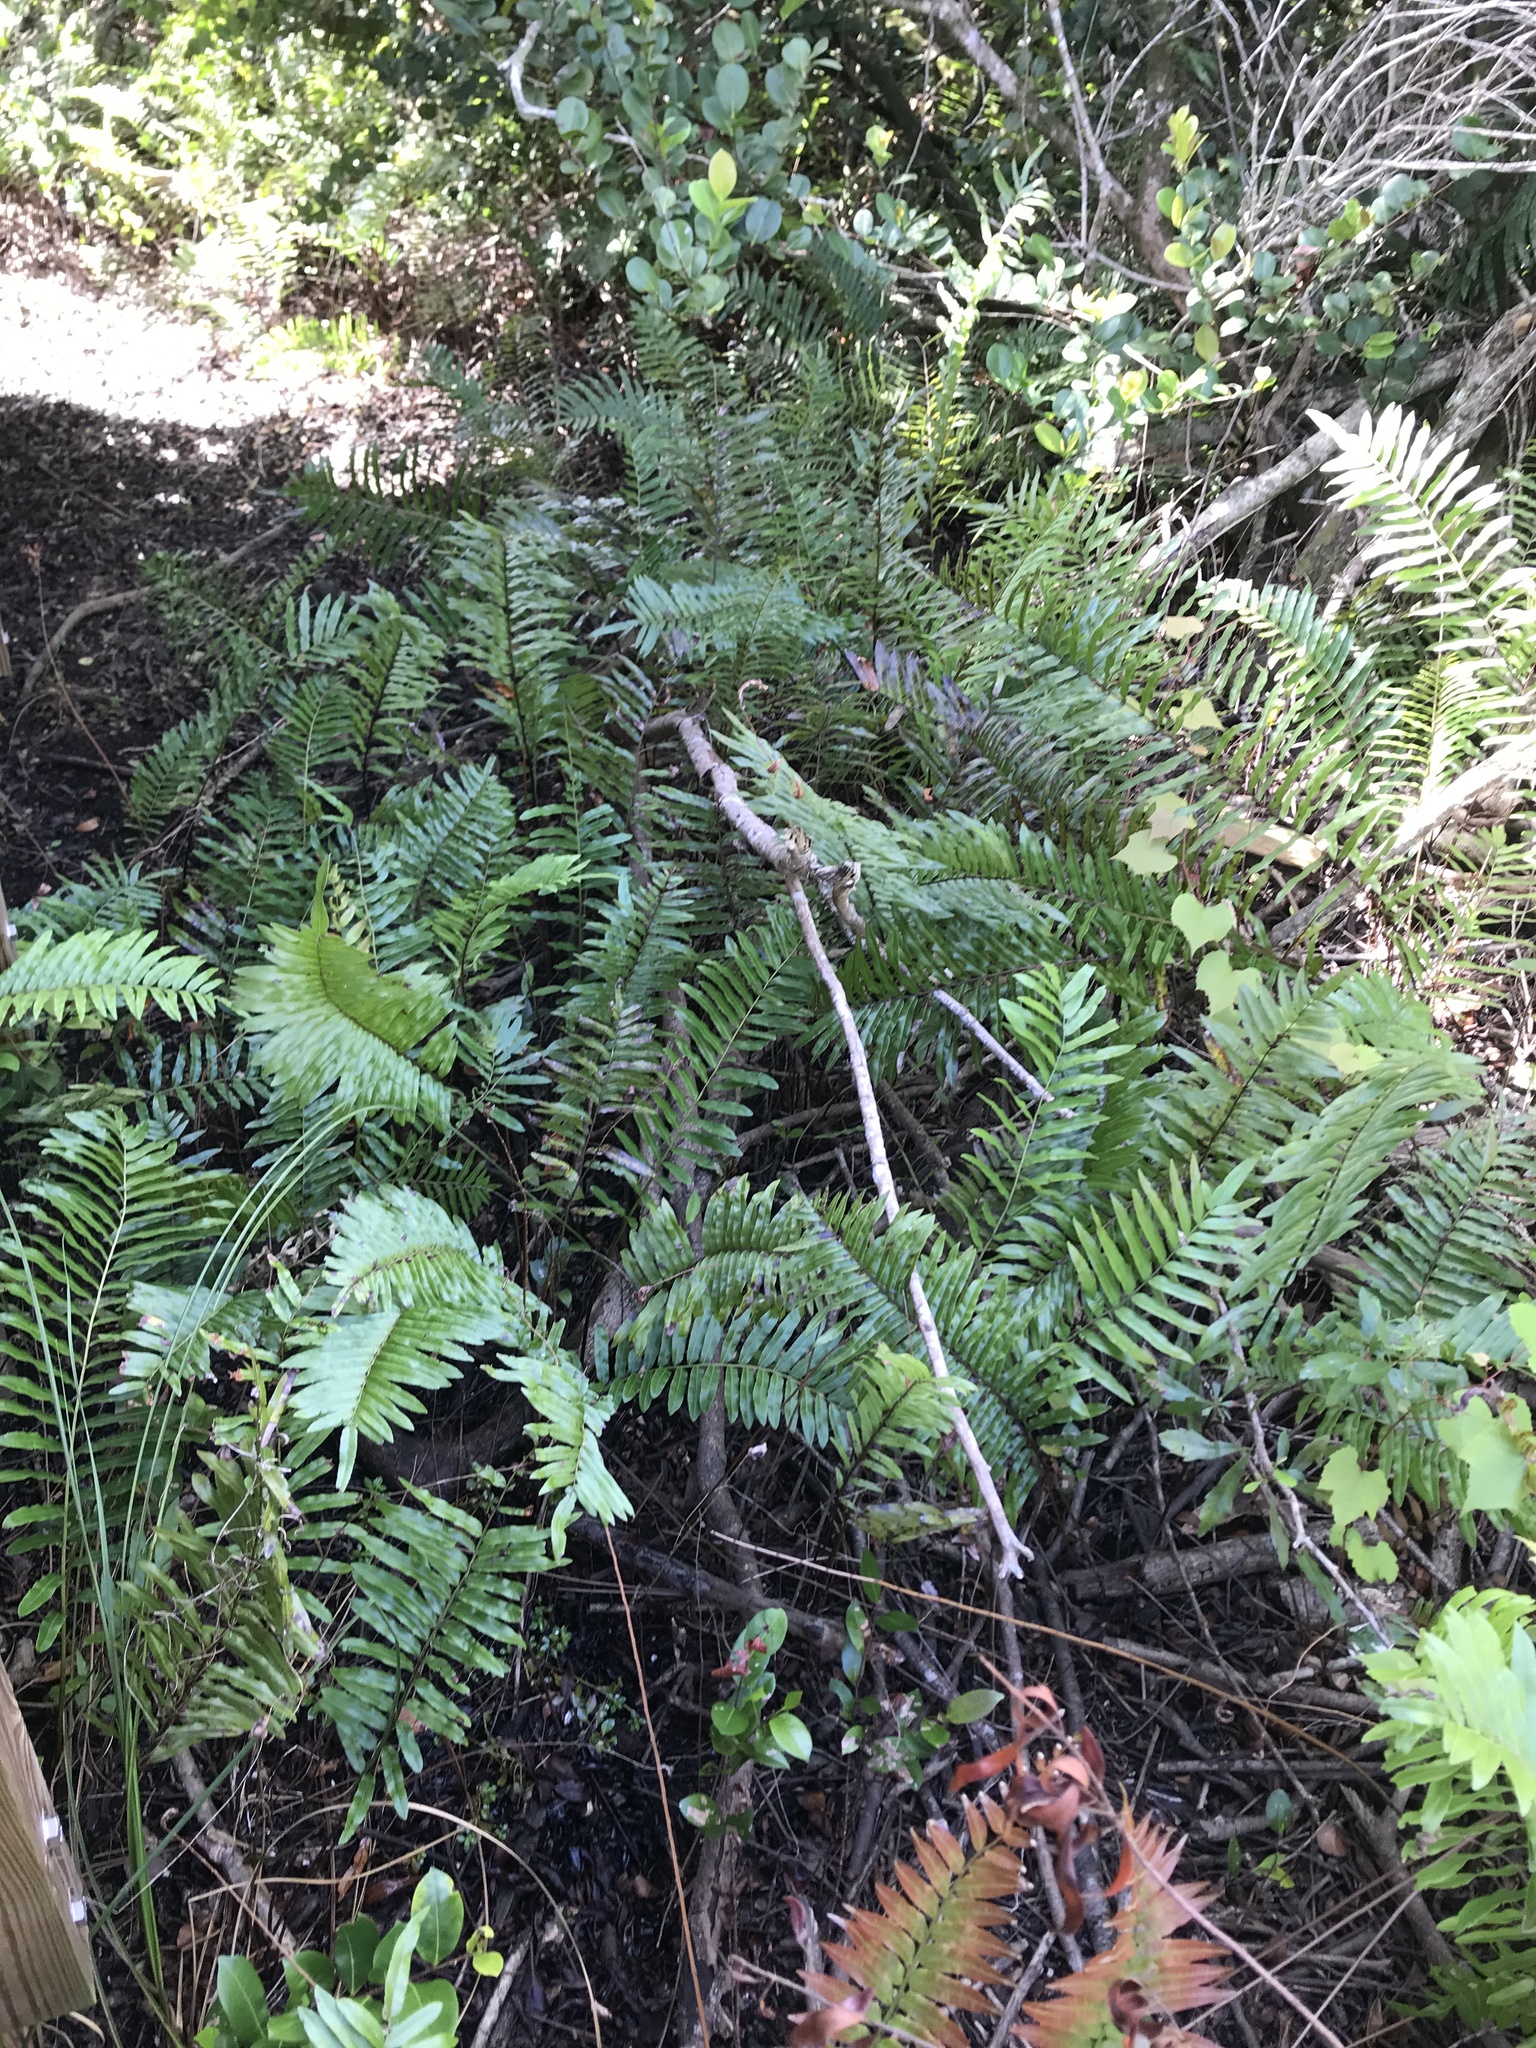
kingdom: Plantae
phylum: Tracheophyta
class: Polypodiopsida
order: Polypodiales
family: Blechnaceae
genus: Telmatoblechnum
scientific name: Telmatoblechnum serrulatum
